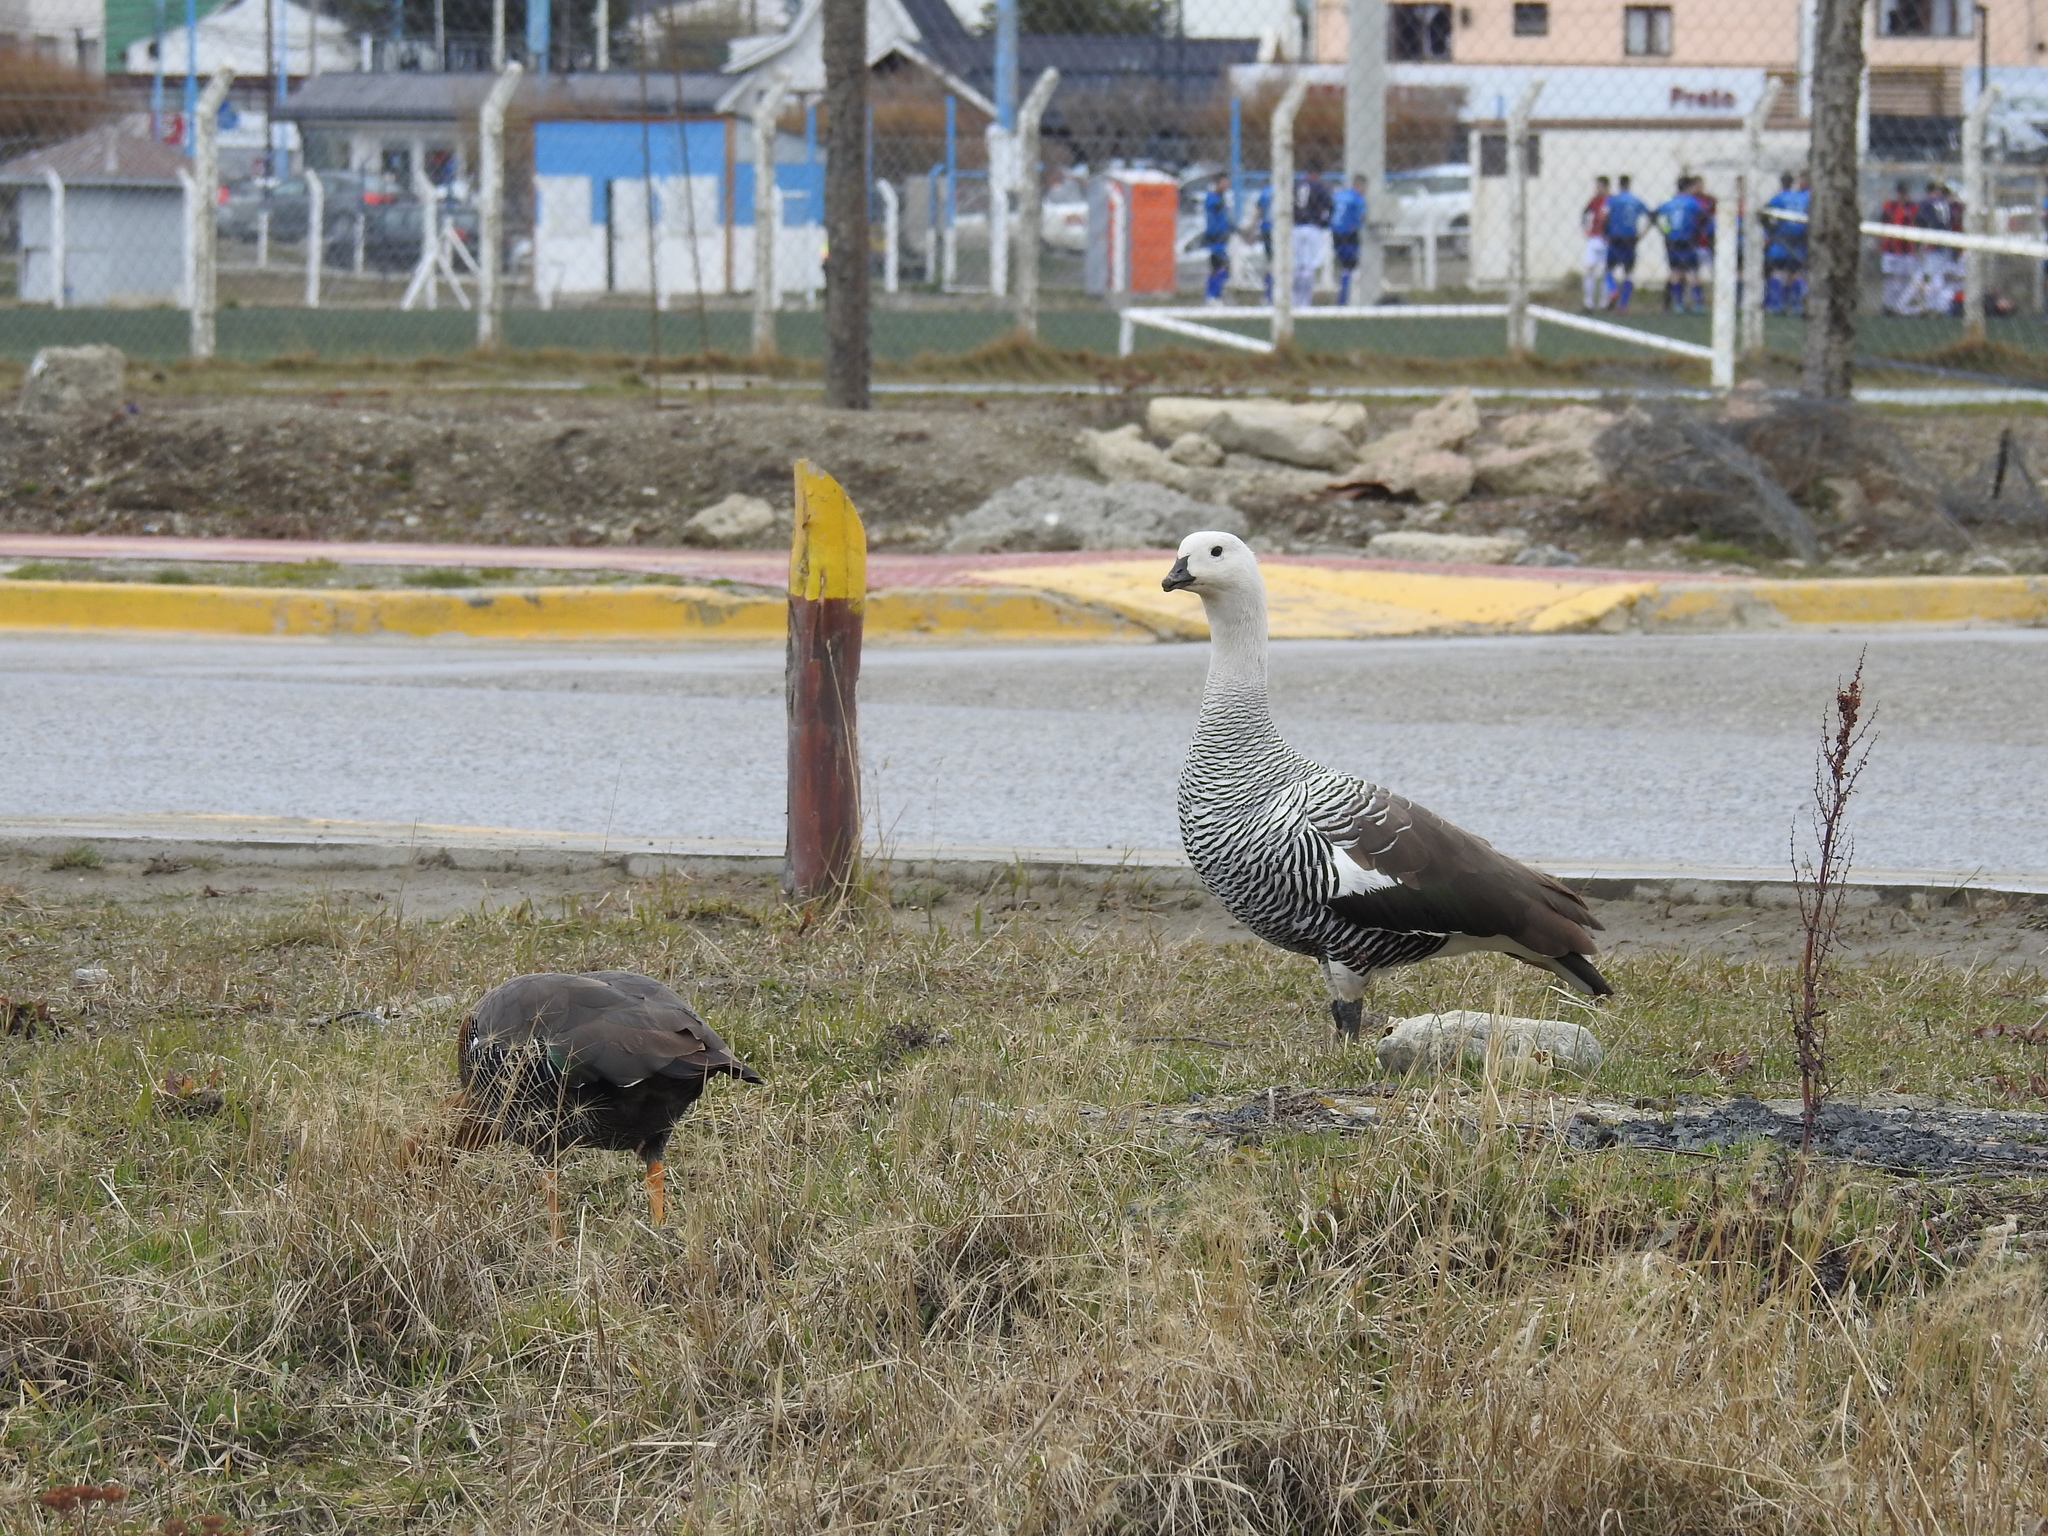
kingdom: Animalia
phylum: Chordata
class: Aves
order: Anseriformes
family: Anatidae
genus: Chloephaga
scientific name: Chloephaga picta
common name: Upland goose
